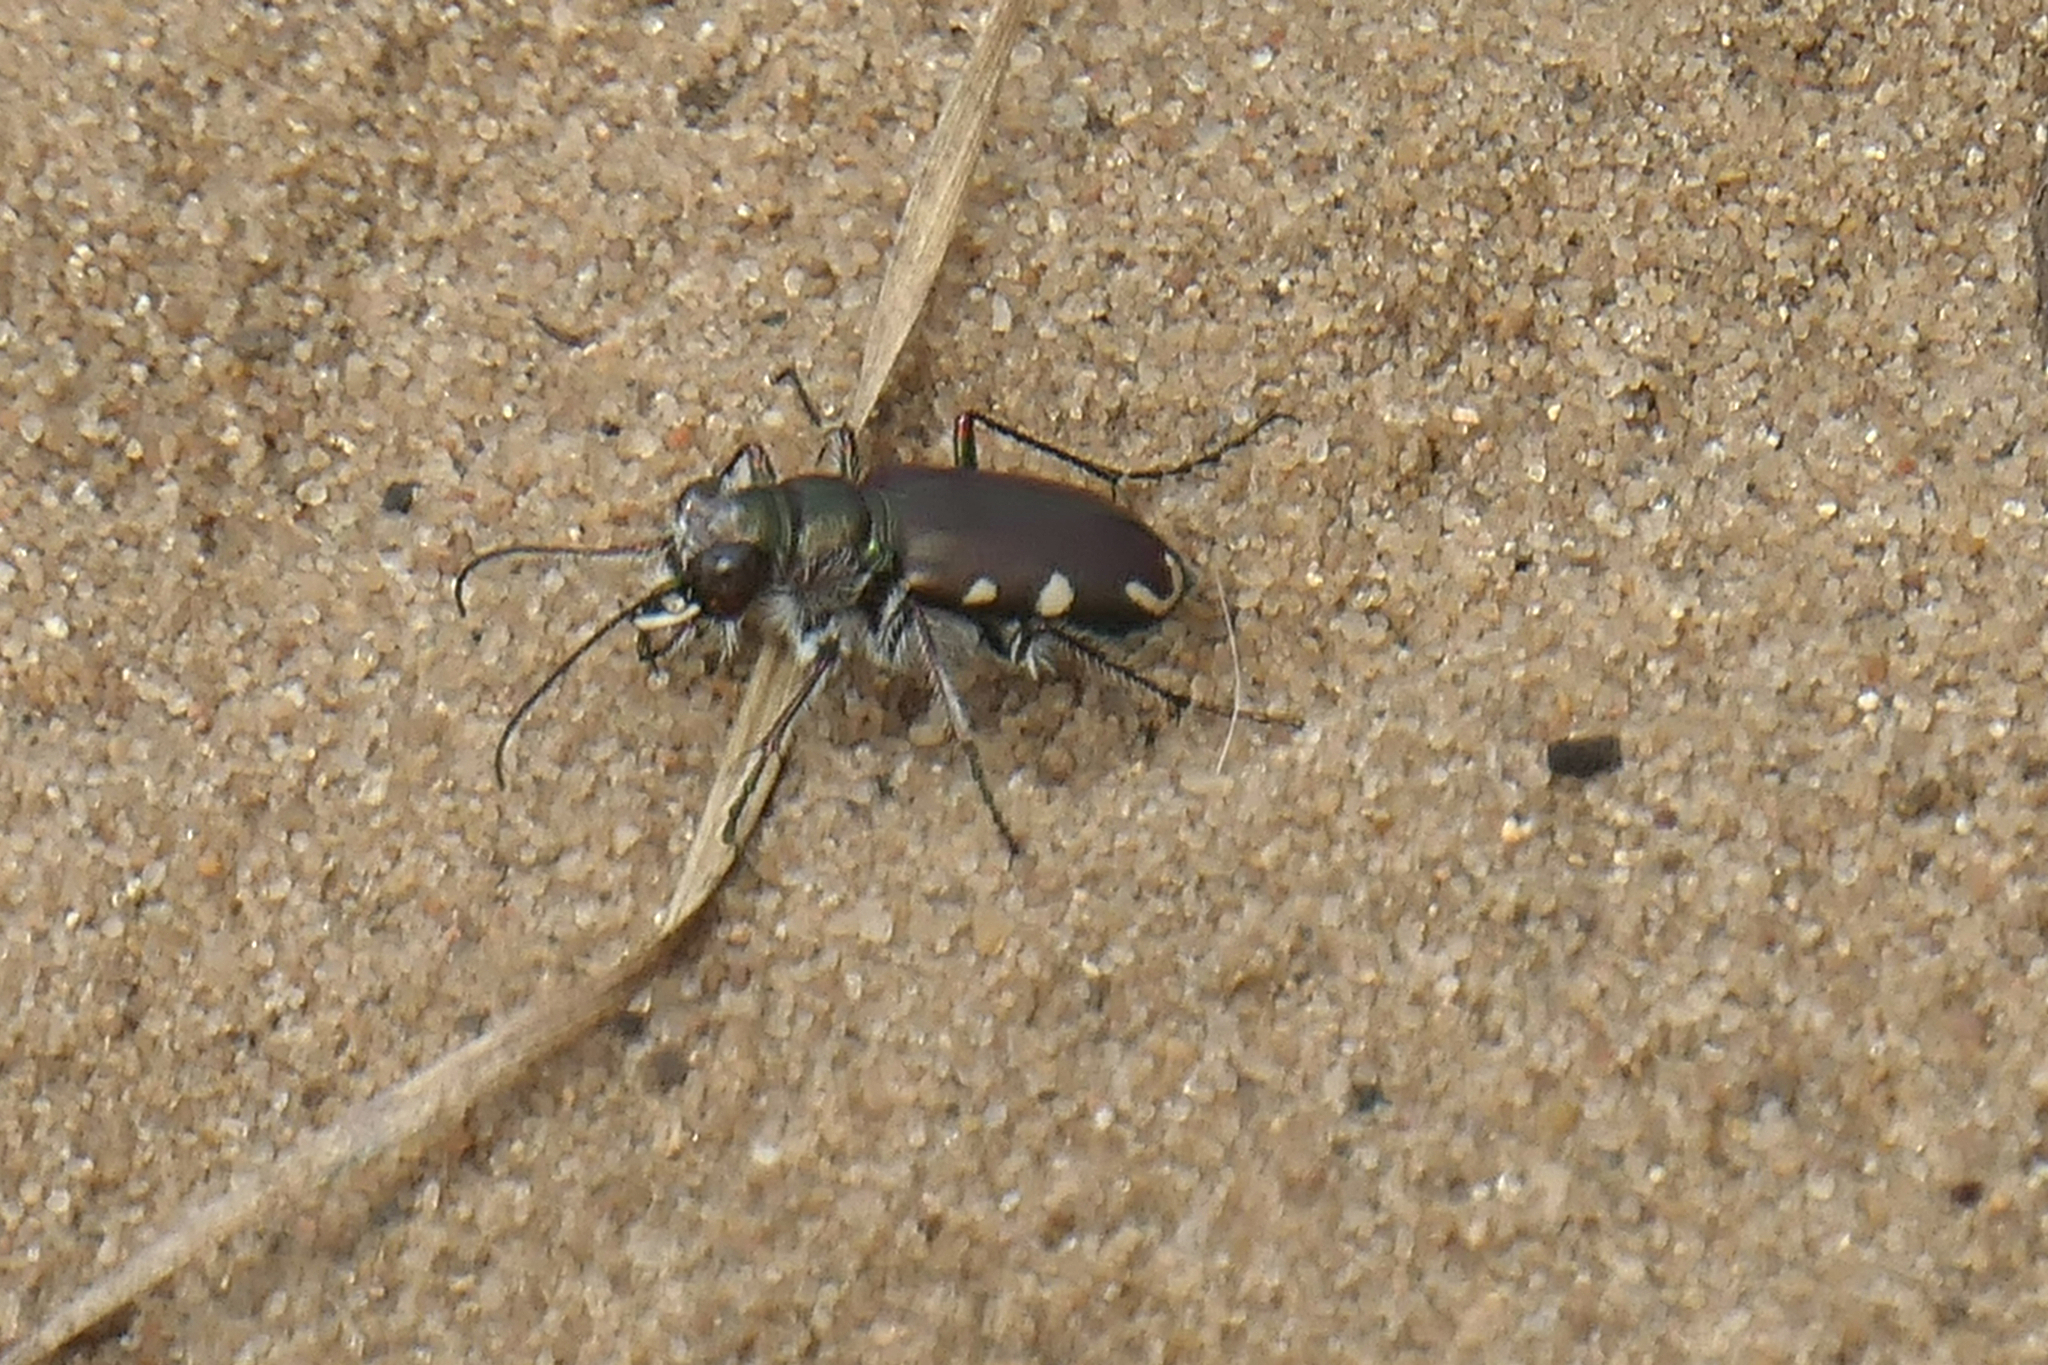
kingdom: Animalia
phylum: Arthropoda
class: Insecta
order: Coleoptera
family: Carabidae
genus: Cicindela
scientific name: Cicindela scutellaris
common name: Festive tiger beetle
